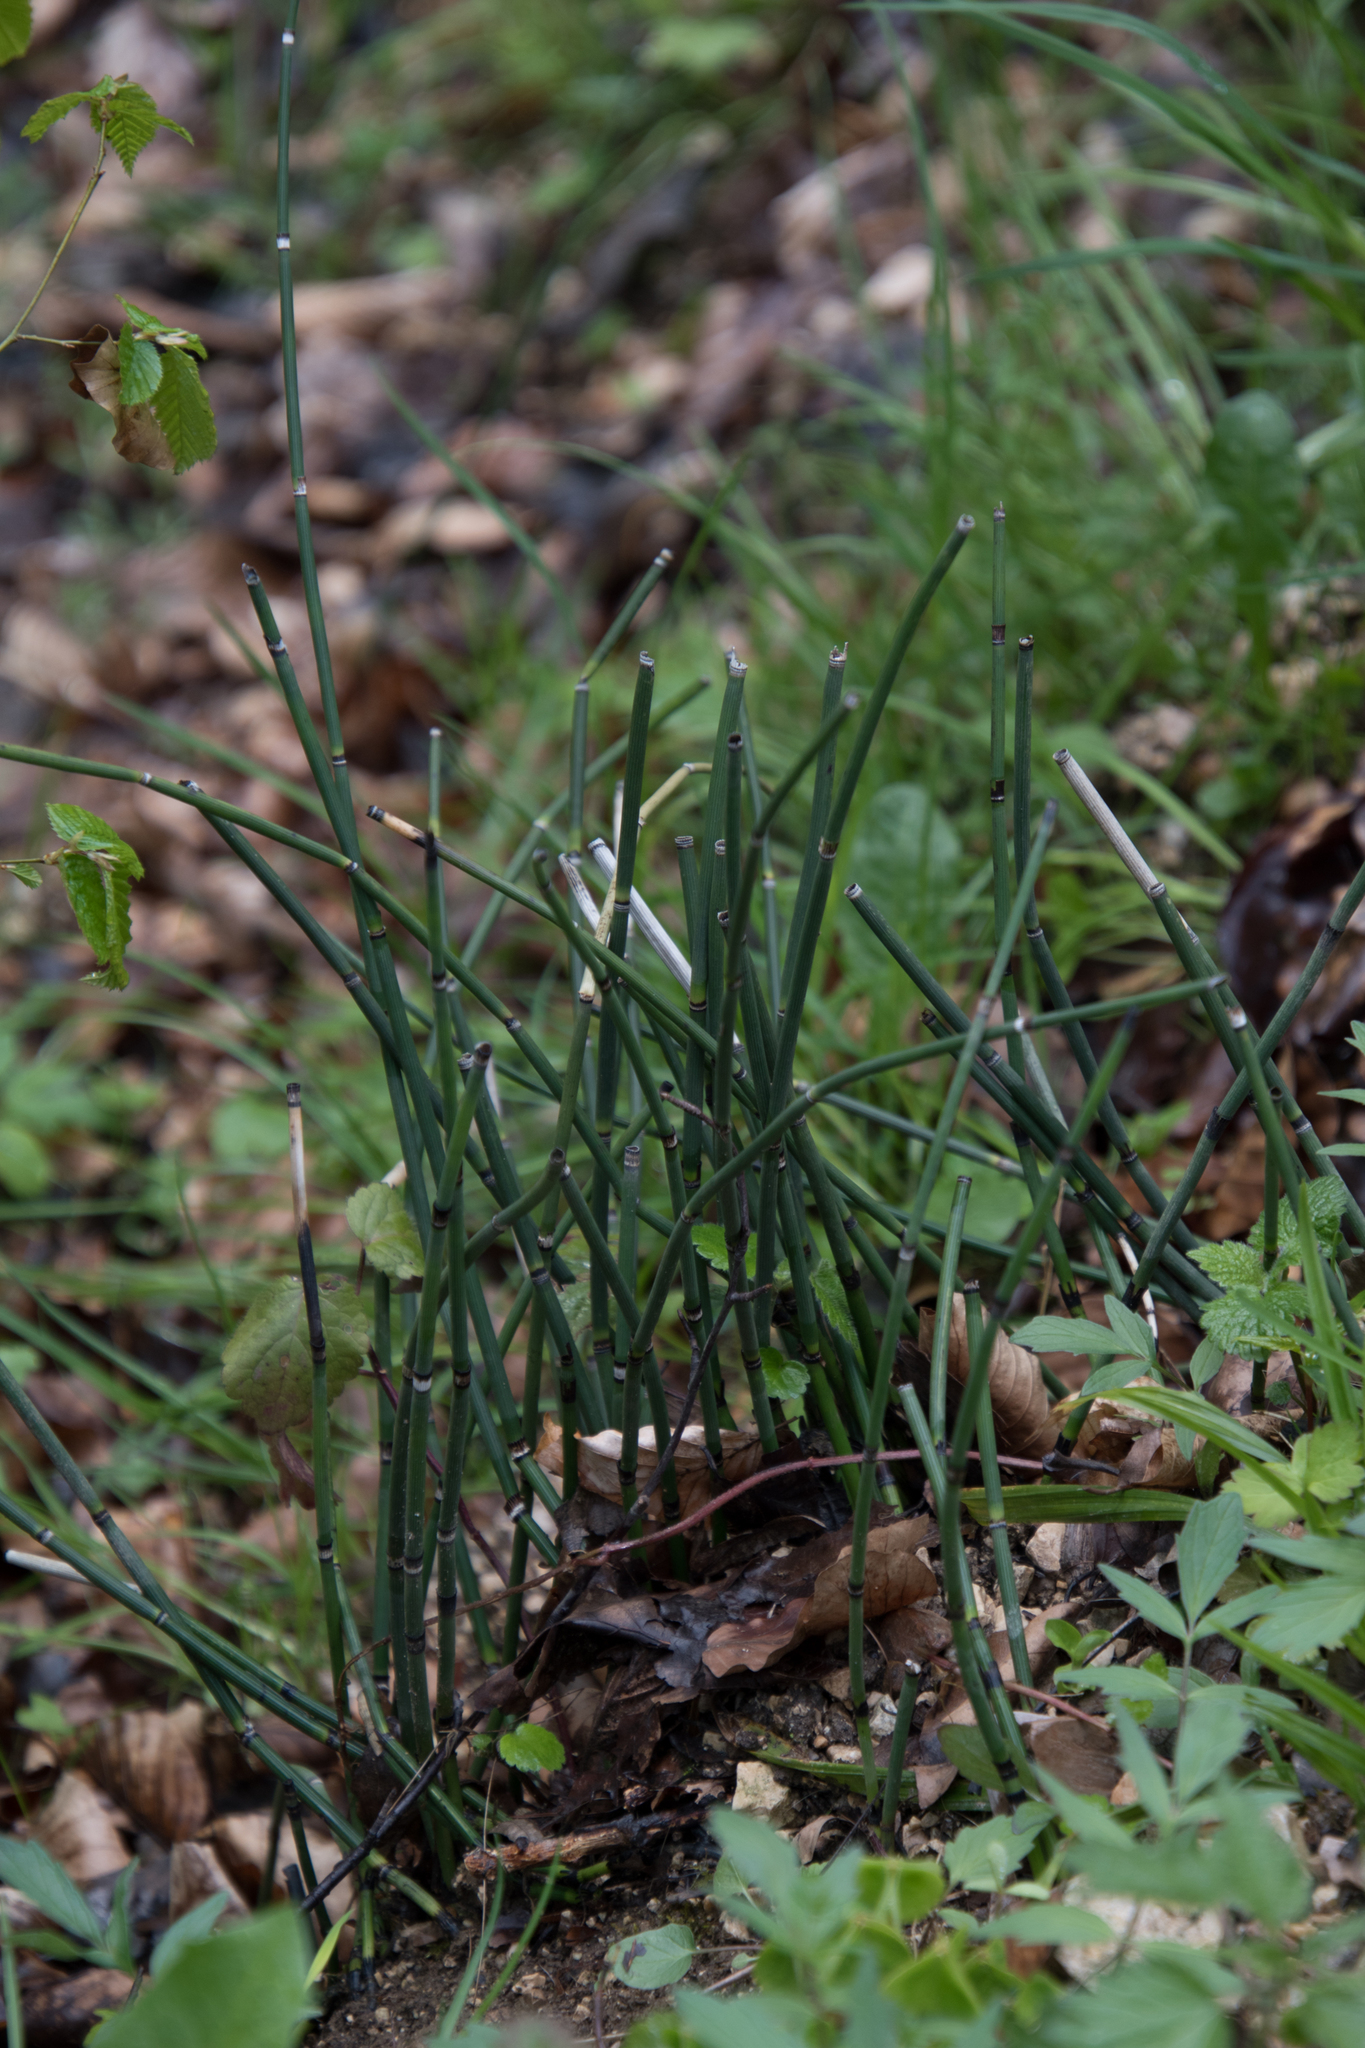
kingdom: Plantae
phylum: Tracheophyta
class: Polypodiopsida
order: Equisetales
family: Equisetaceae
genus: Equisetum
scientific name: Equisetum hyemale
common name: Rough horsetail
